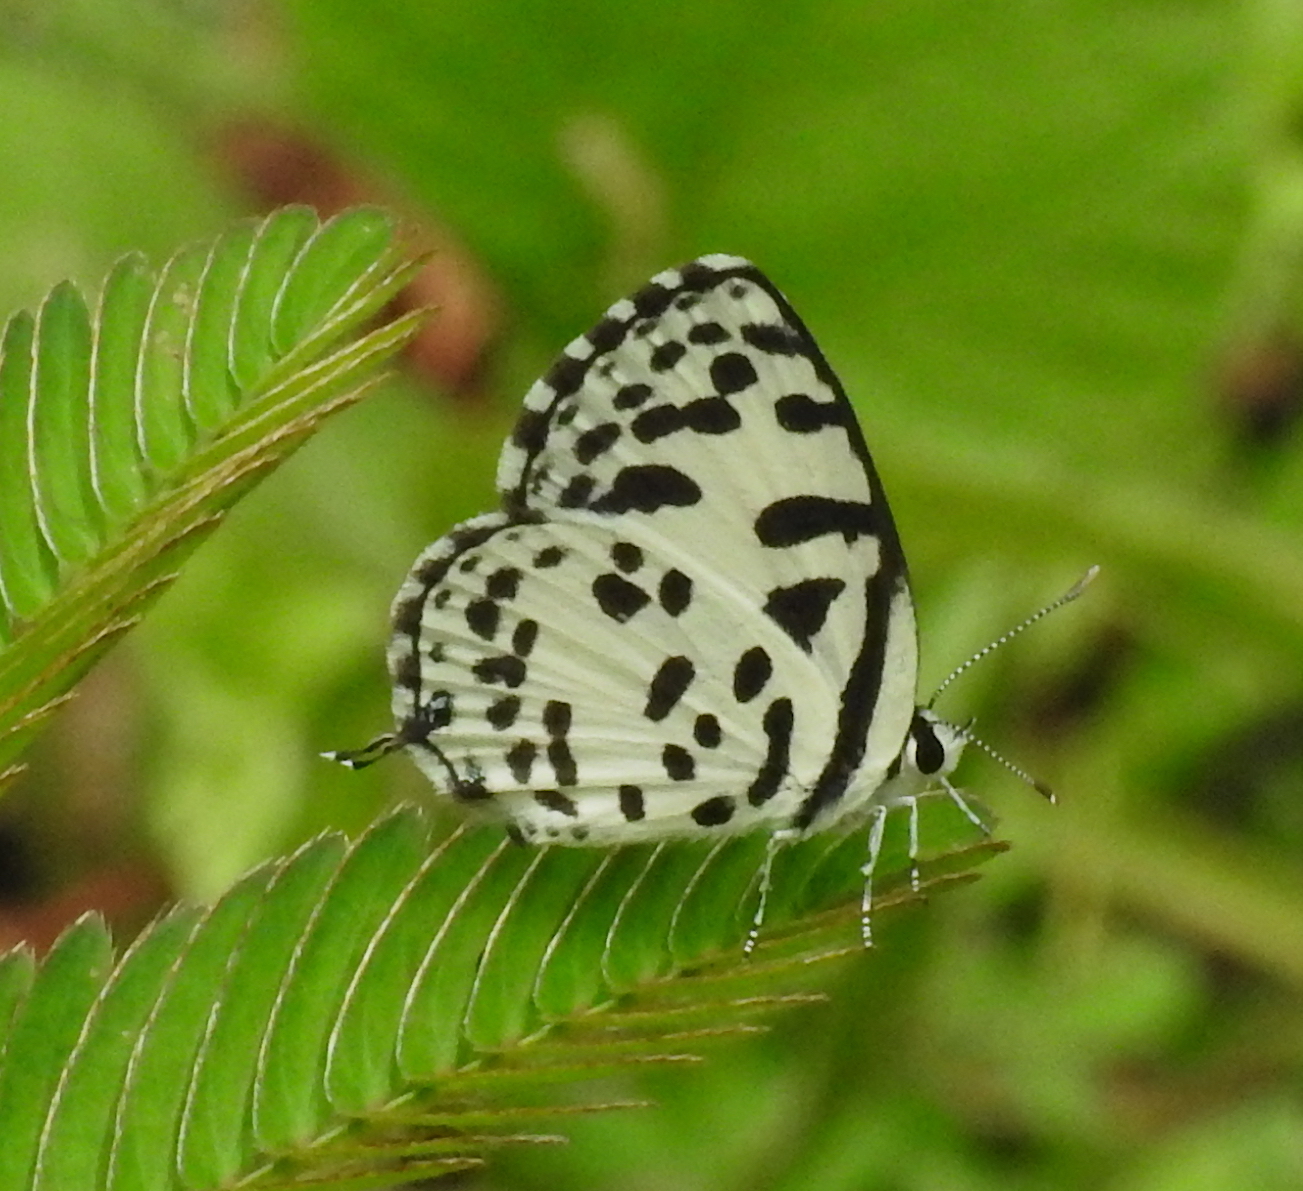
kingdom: Animalia
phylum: Arthropoda
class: Insecta
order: Lepidoptera
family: Lycaenidae
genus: Castalius
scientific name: Castalius rosimon
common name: Common pierrot
